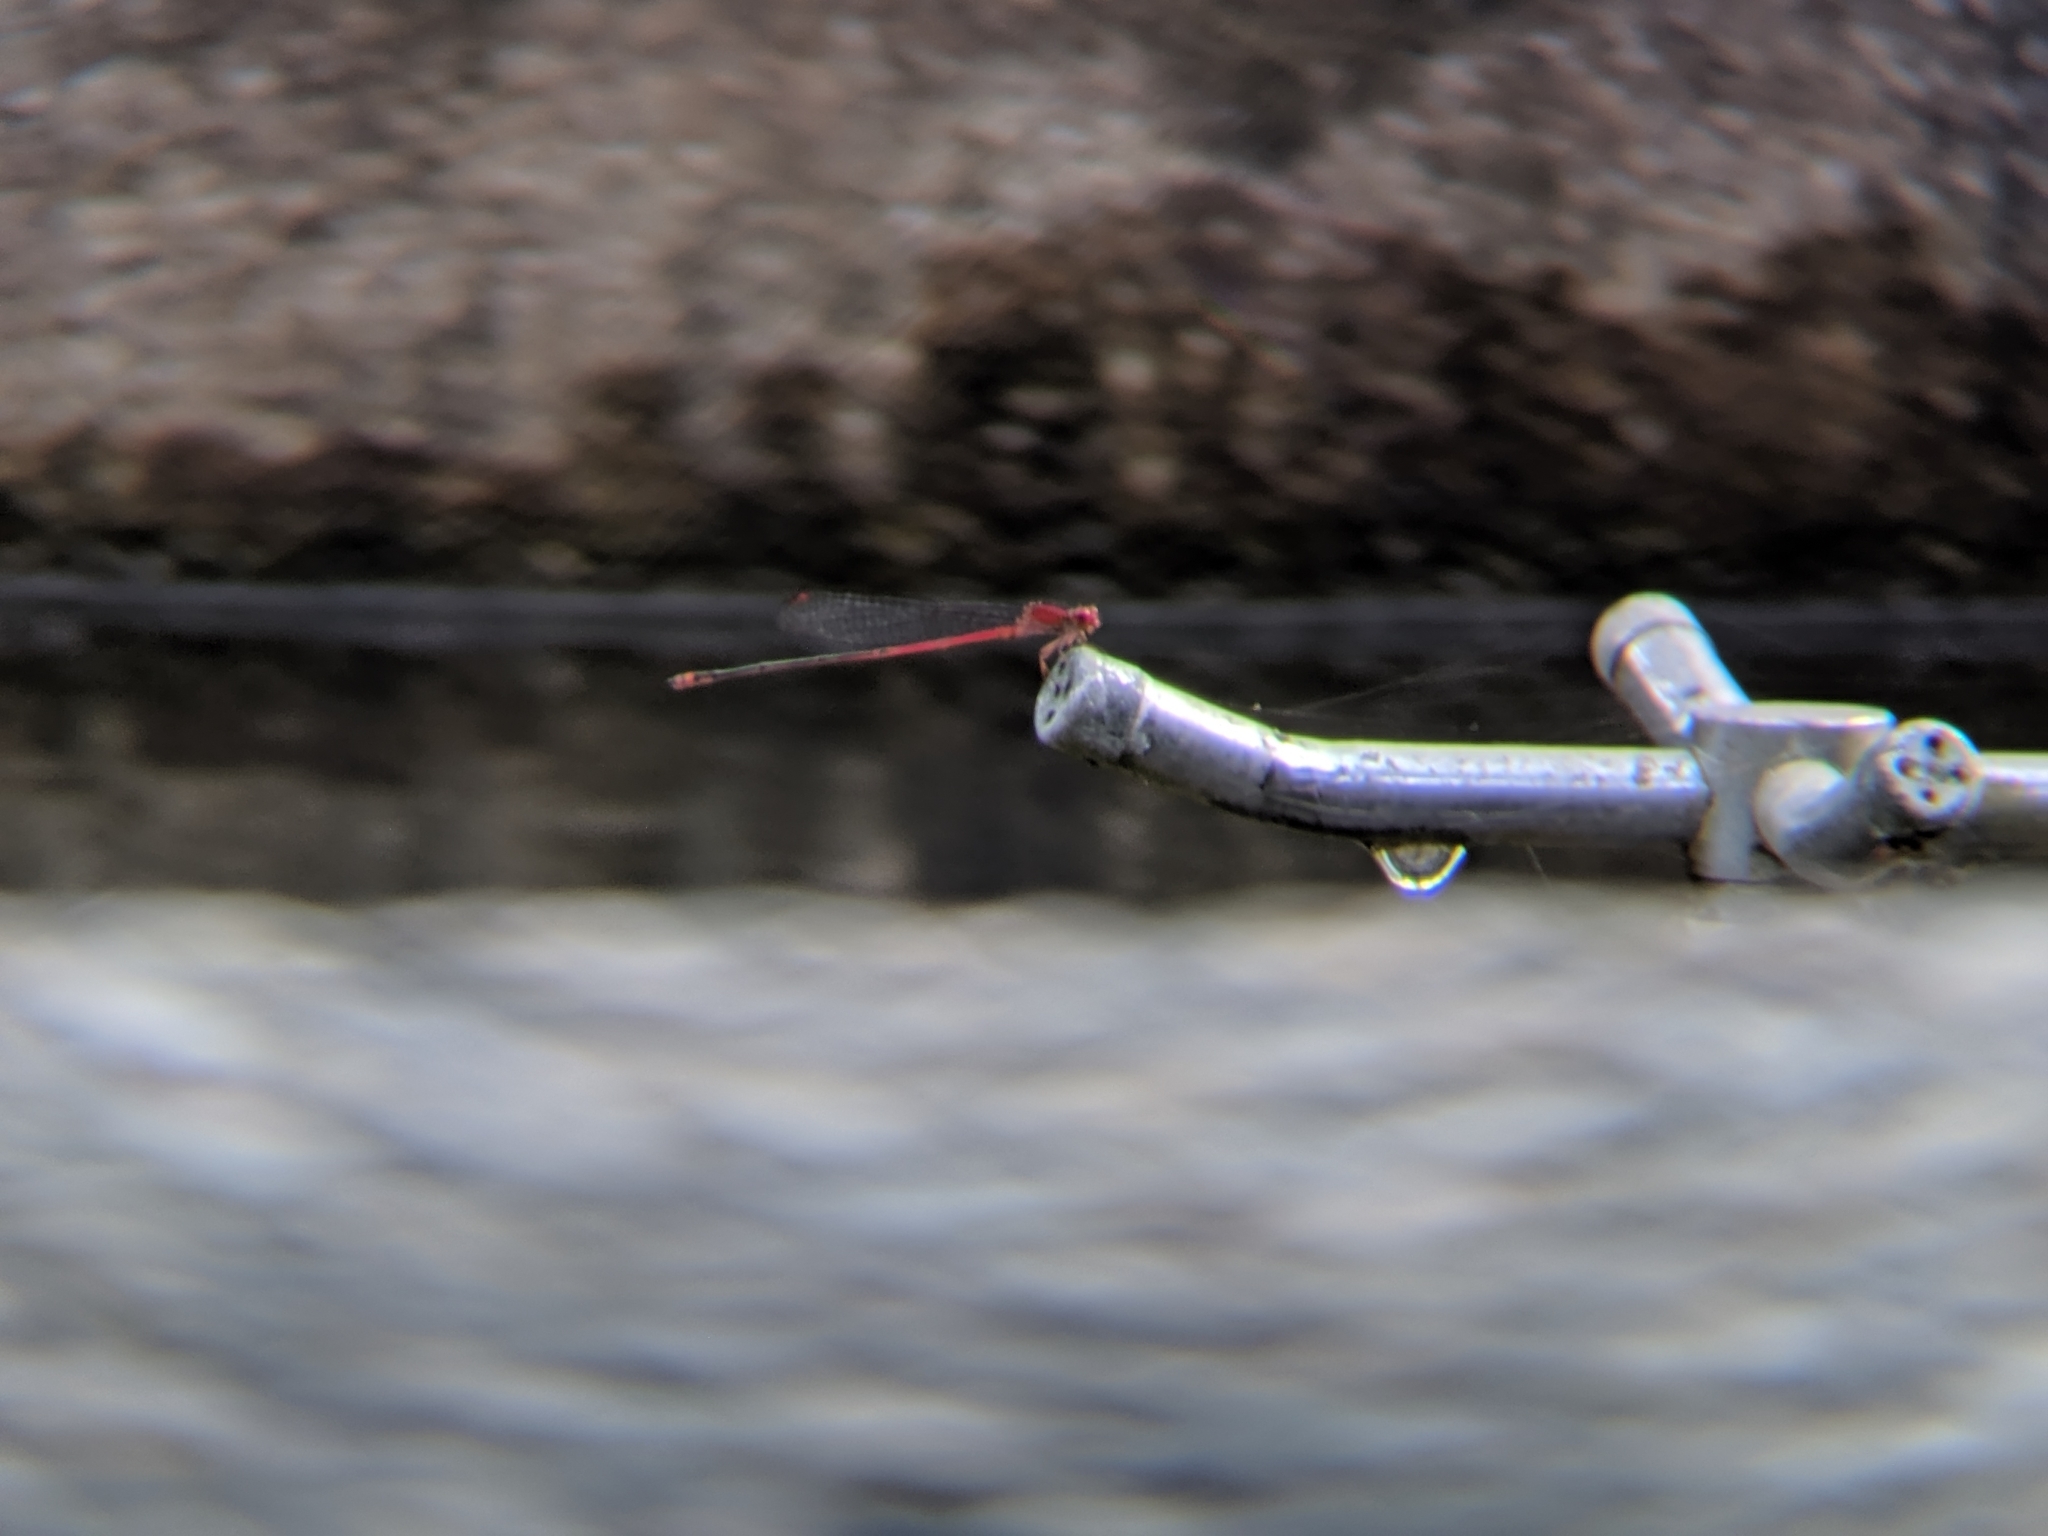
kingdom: Animalia
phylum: Arthropoda
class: Insecta
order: Odonata
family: Coenagrionidae
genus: Pseudagrion
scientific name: Pseudagrion pilidorsum
